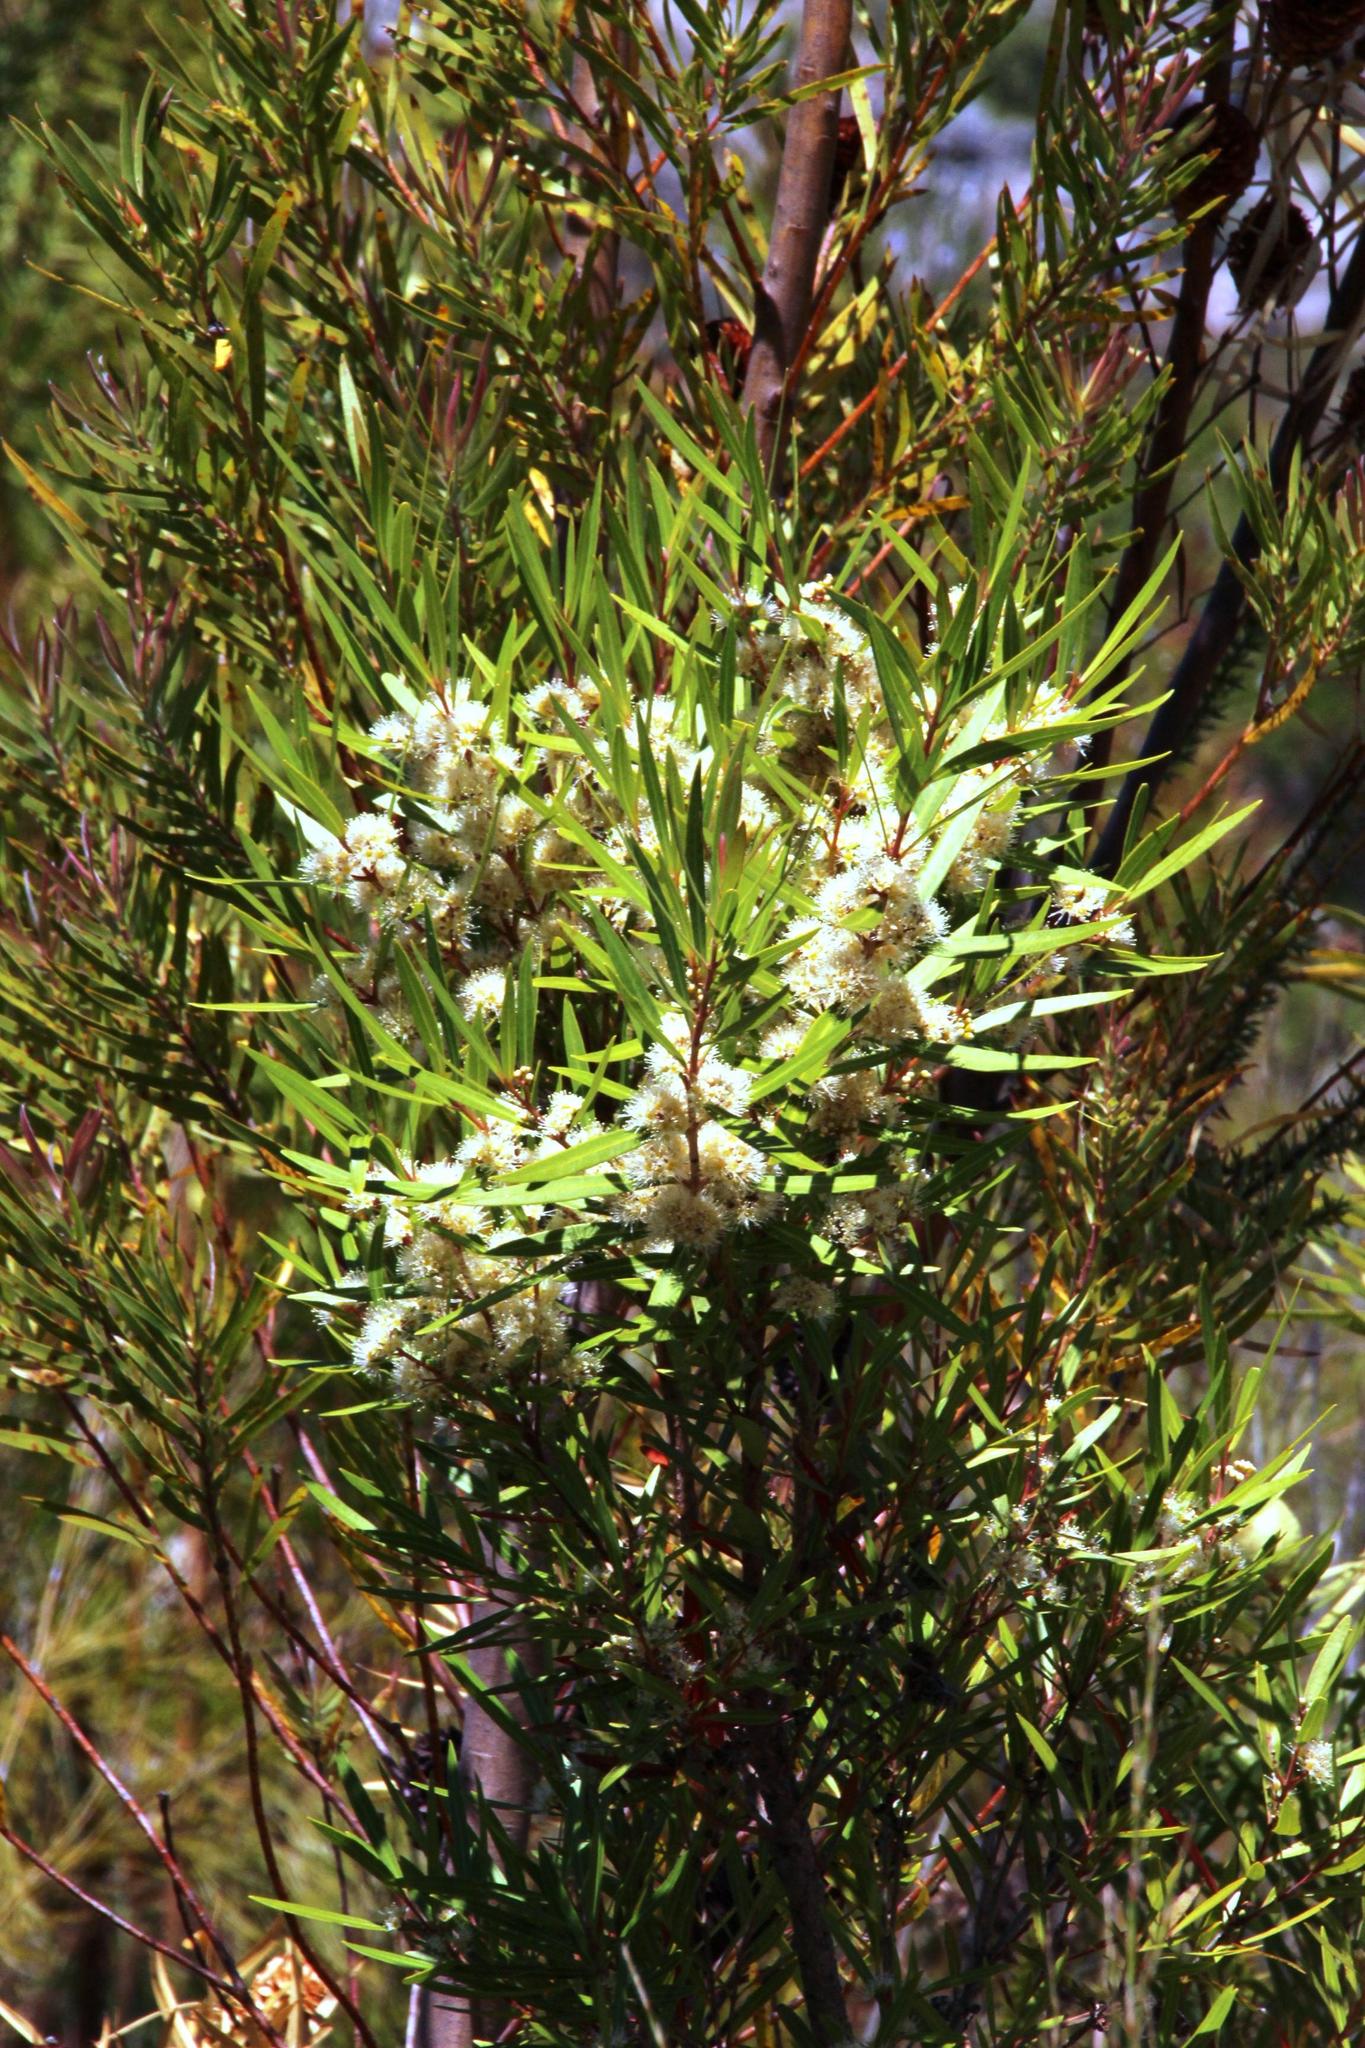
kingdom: Plantae
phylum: Tracheophyta
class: Magnoliopsida
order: Myrtales
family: Myrtaceae
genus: Callistemon
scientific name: Callistemon lanceolatus
